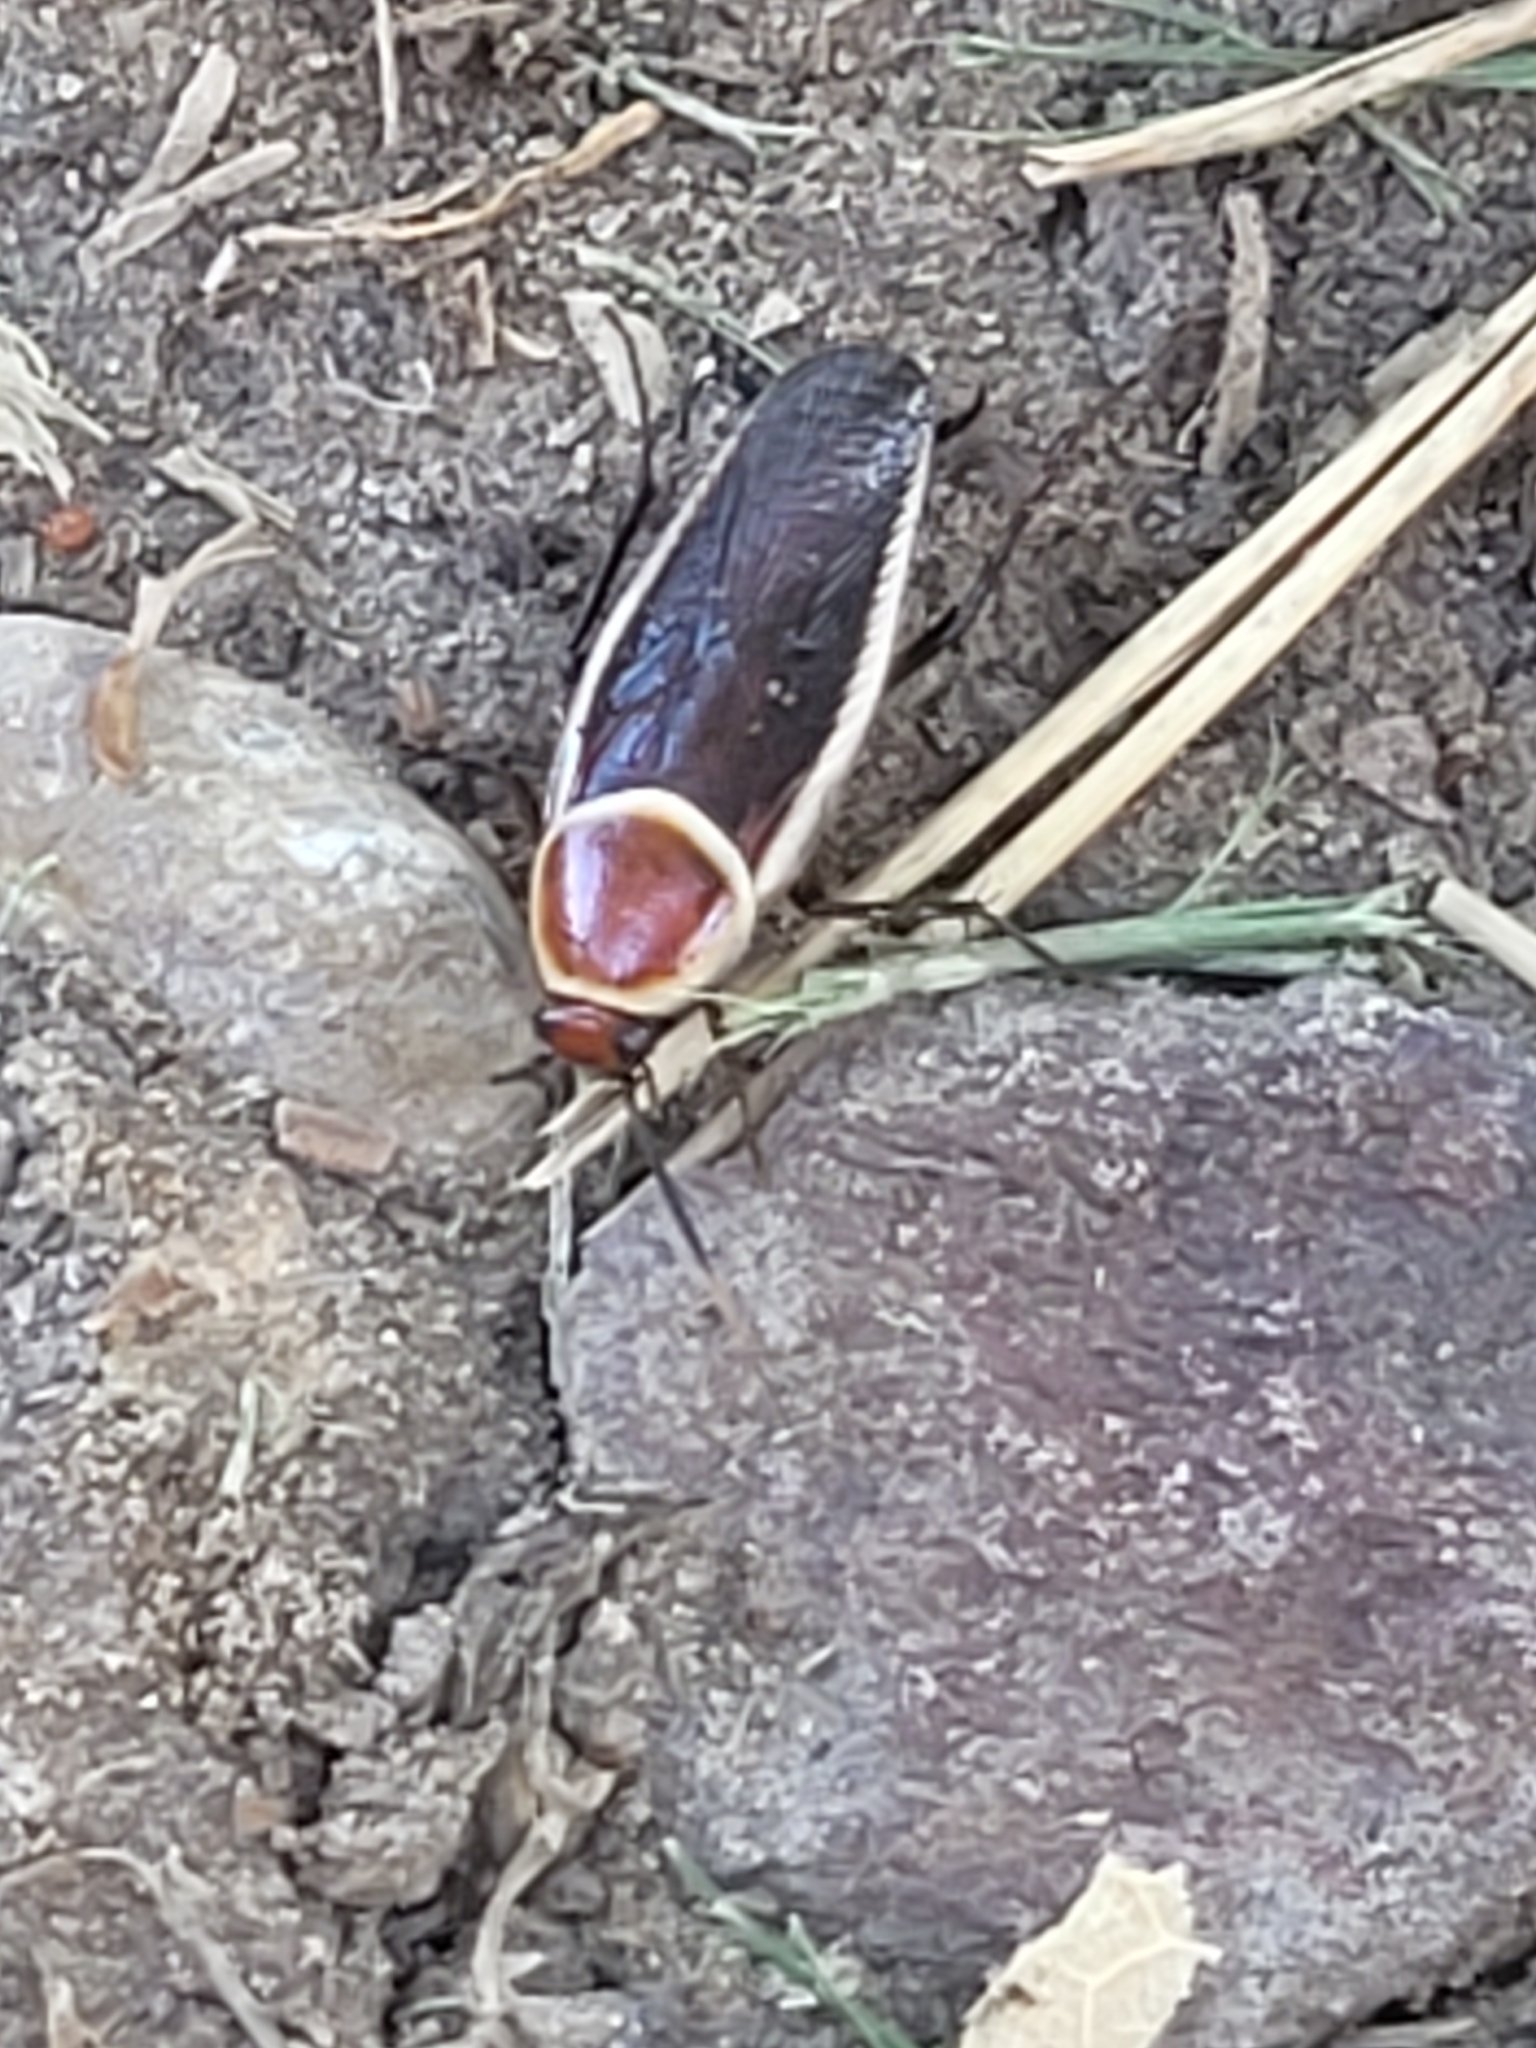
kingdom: Animalia
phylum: Arthropoda
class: Insecta
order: Blattodea
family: Ectobiidae
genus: Pseudomops
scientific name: Pseudomops septentrionalis
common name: Pale-bordered field cockroach
